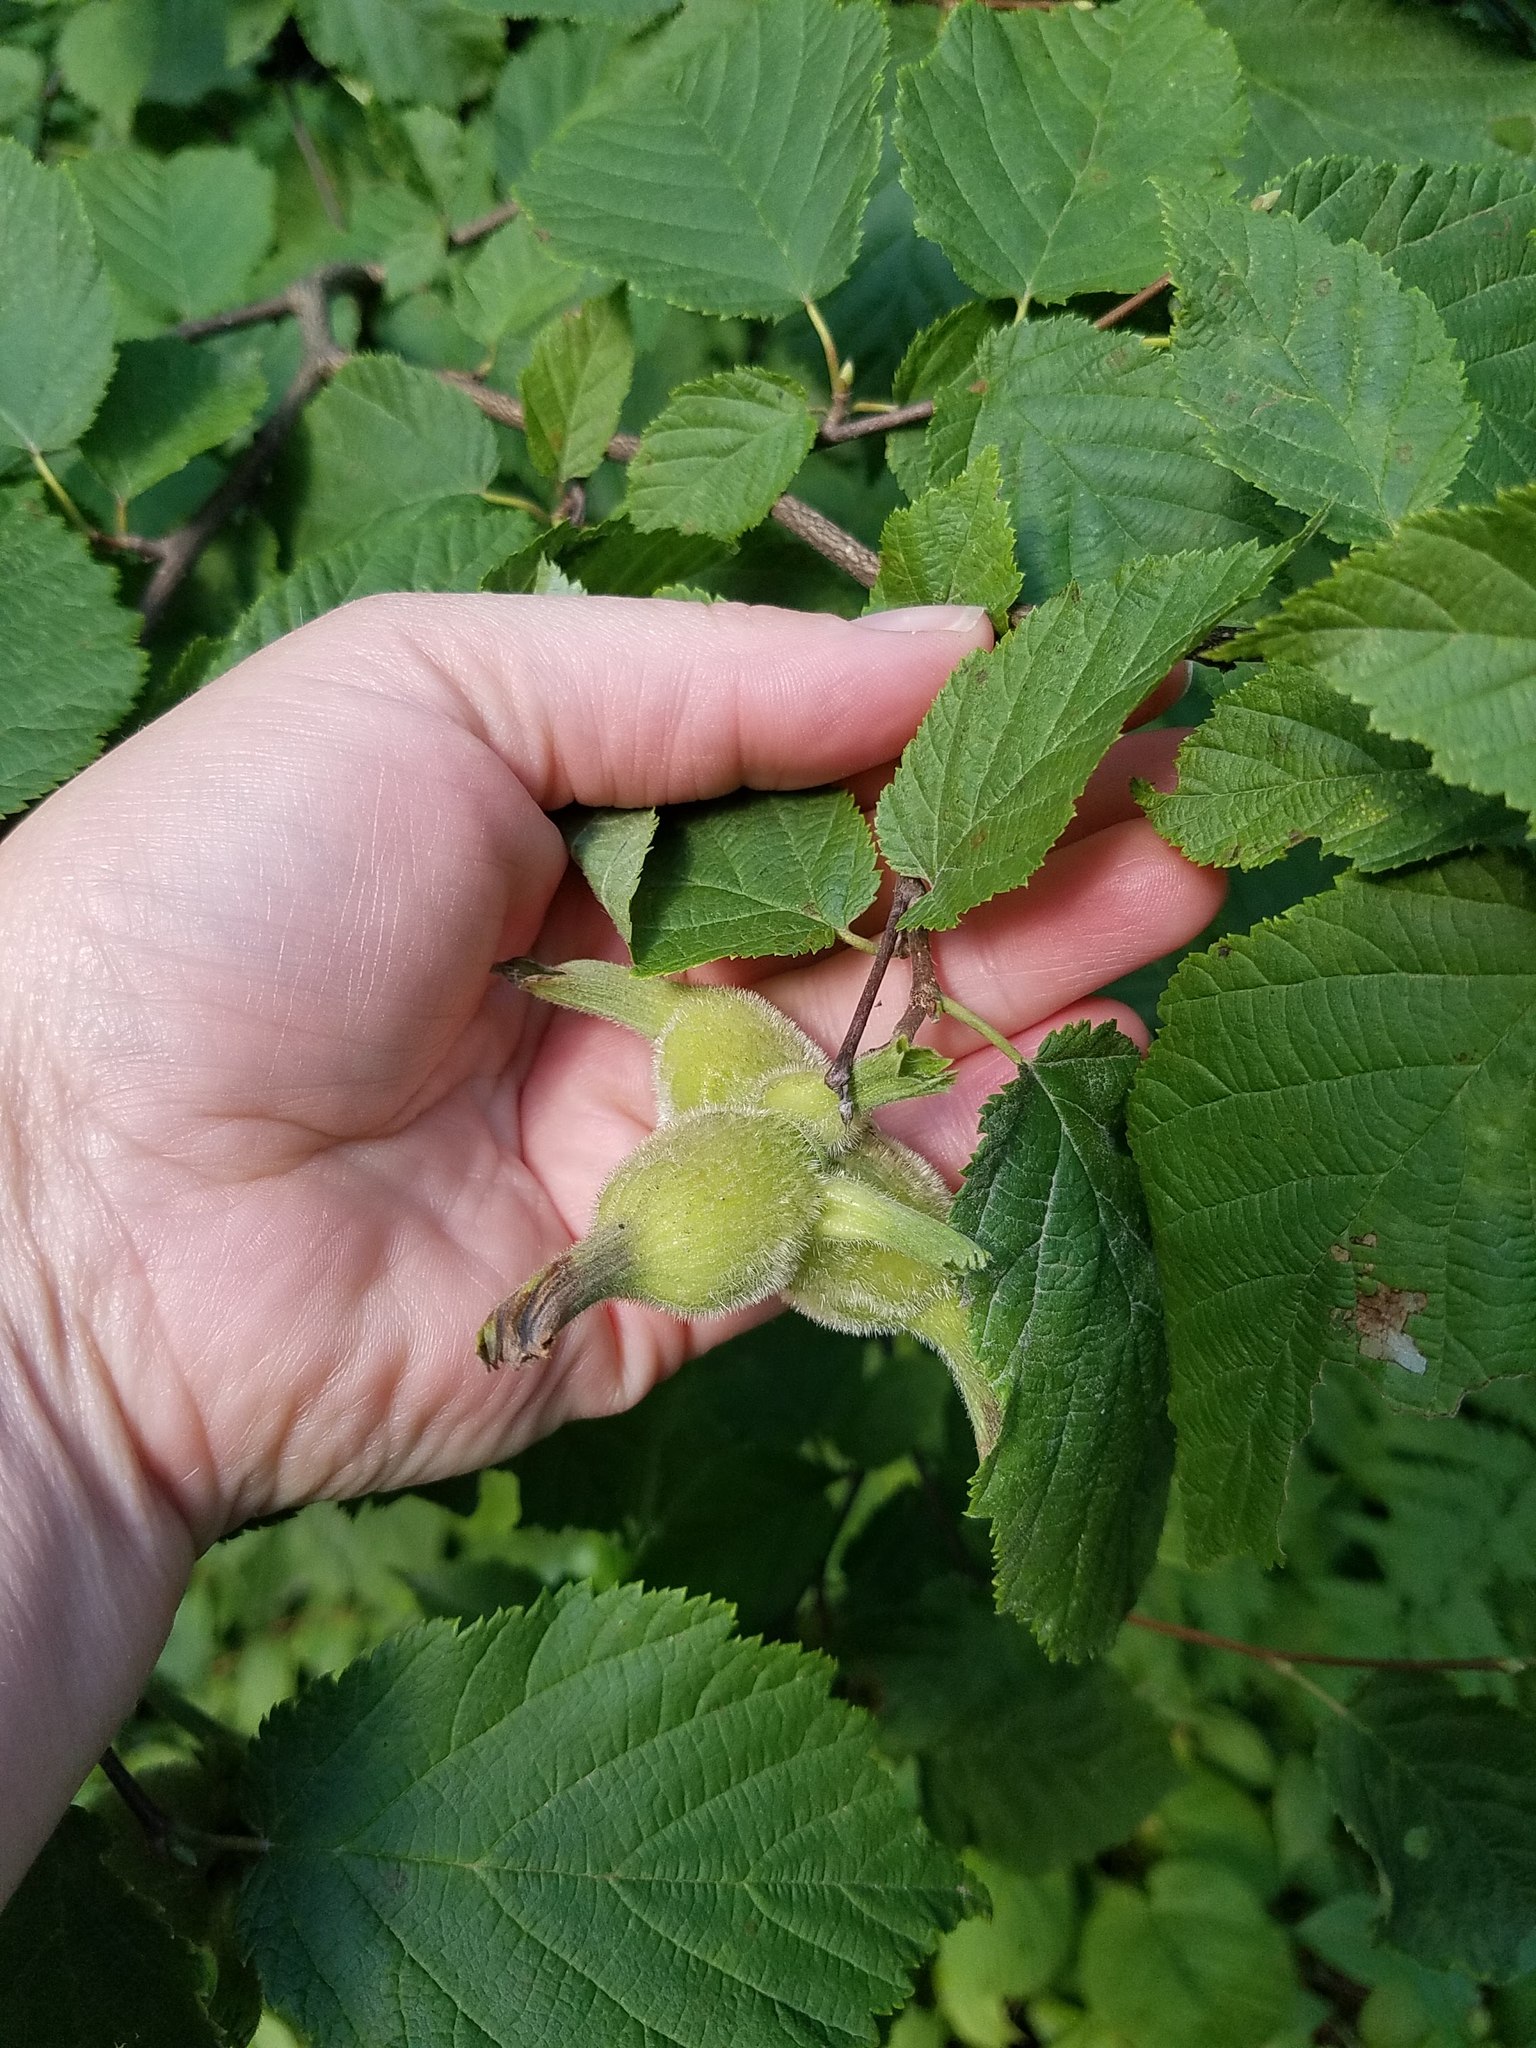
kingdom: Plantae
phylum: Tracheophyta
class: Magnoliopsida
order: Fagales
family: Betulaceae
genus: Corylus
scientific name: Corylus cornuta
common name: Beaked hazel
